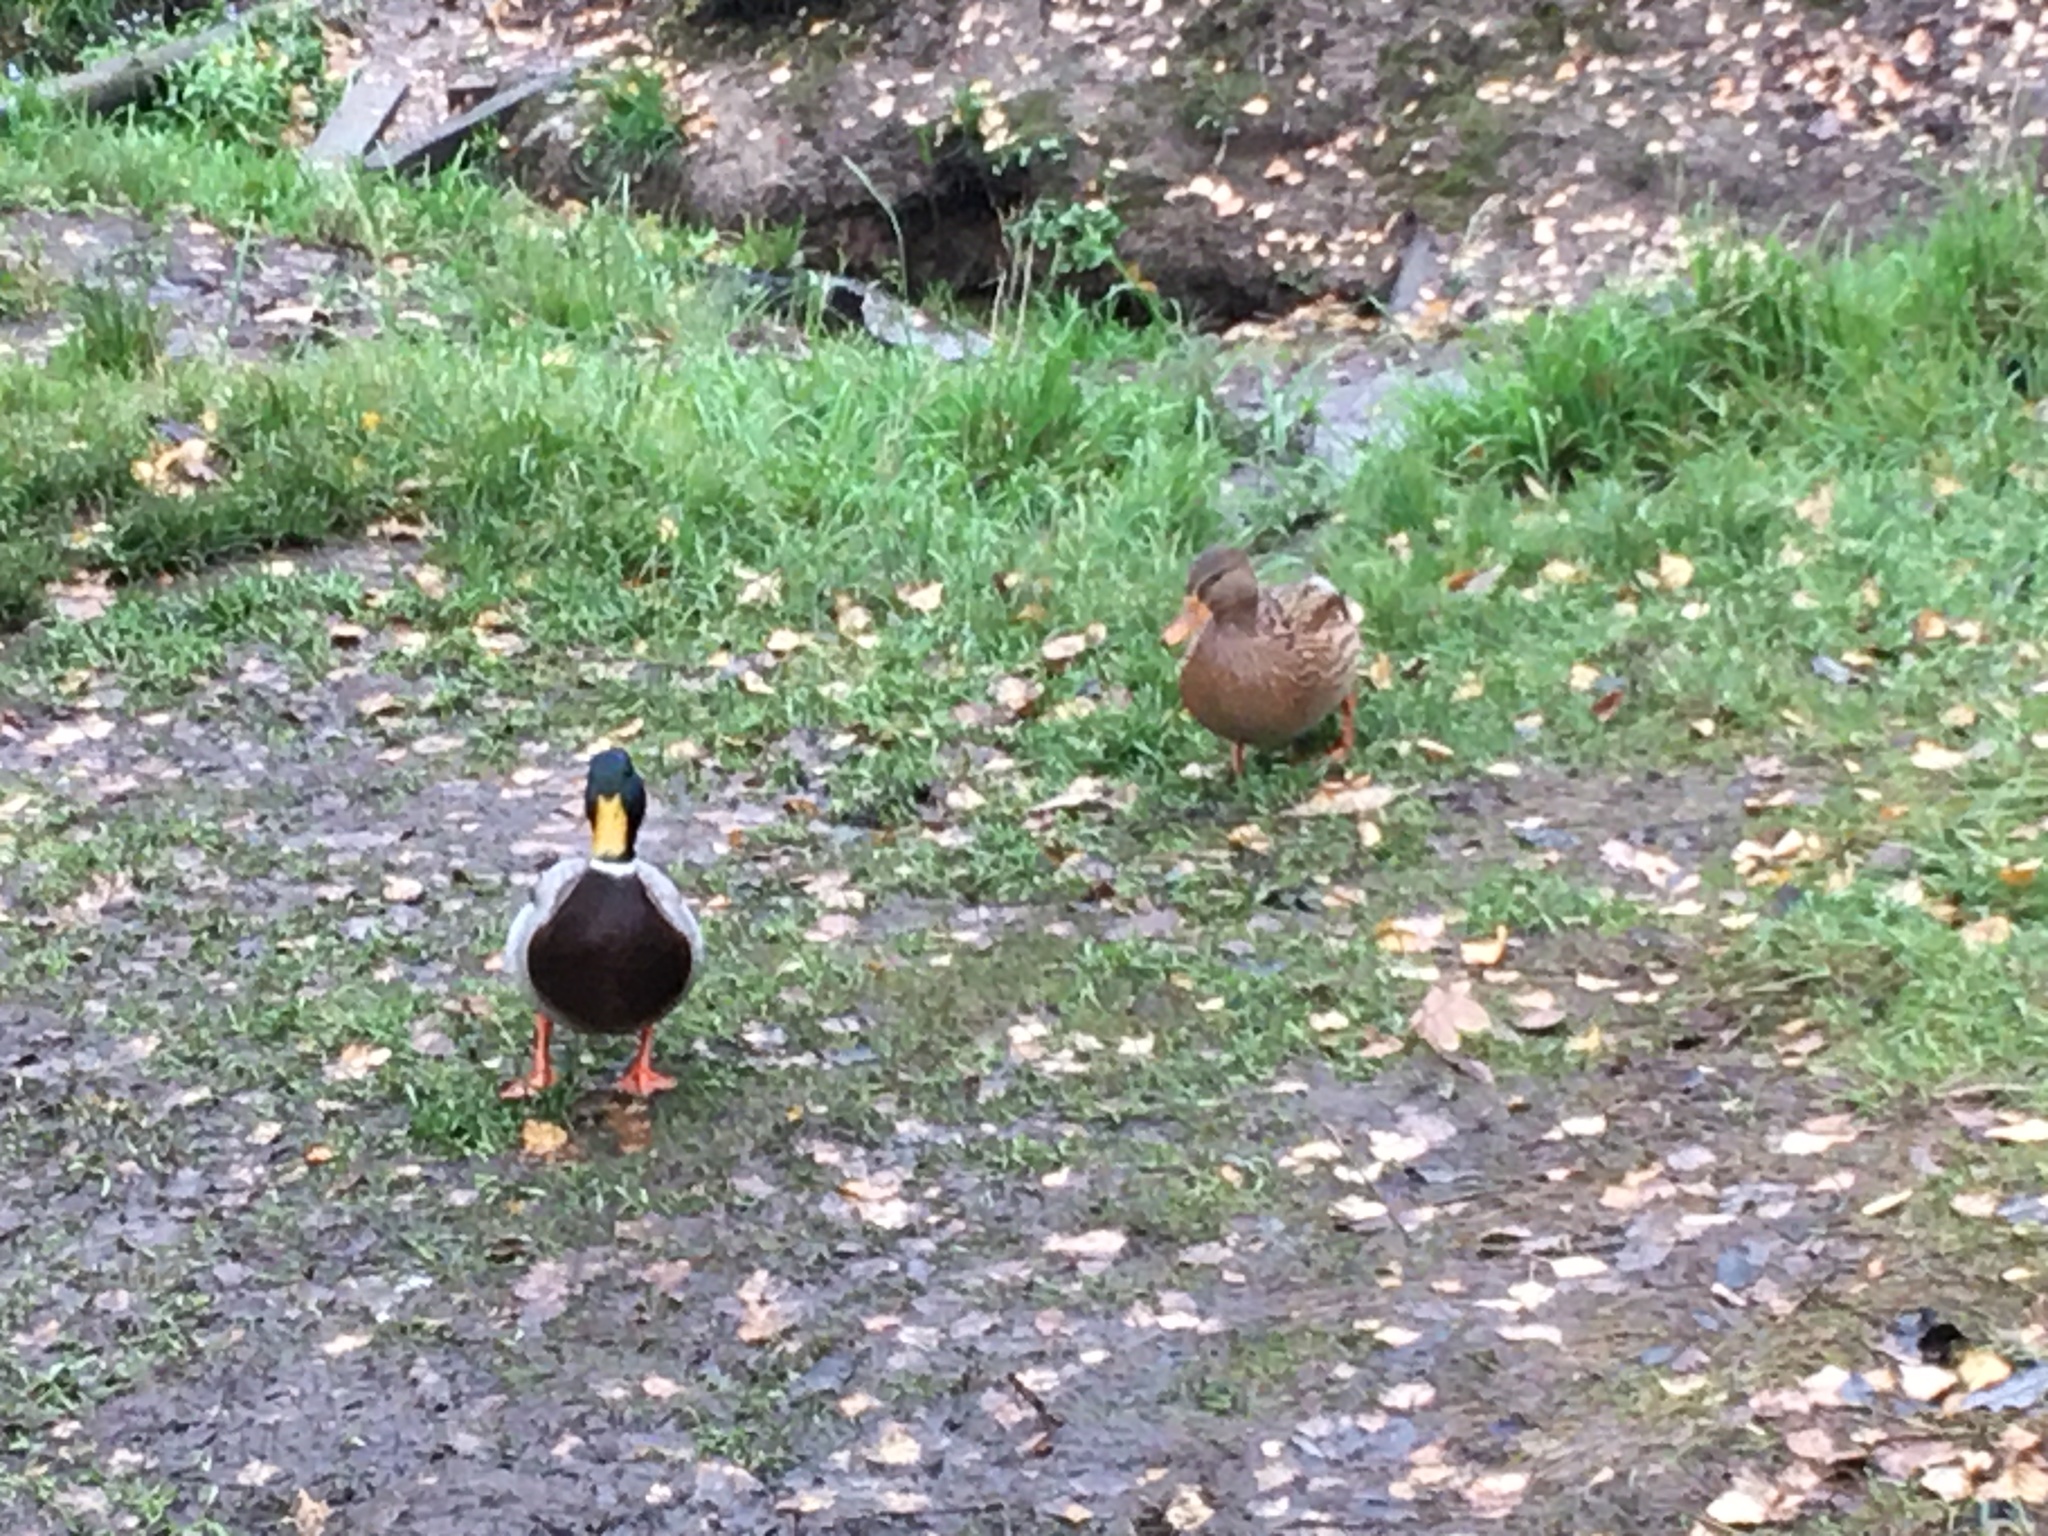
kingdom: Animalia
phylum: Chordata
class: Aves
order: Anseriformes
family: Anatidae
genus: Anas
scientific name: Anas platyrhynchos
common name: Mallard
